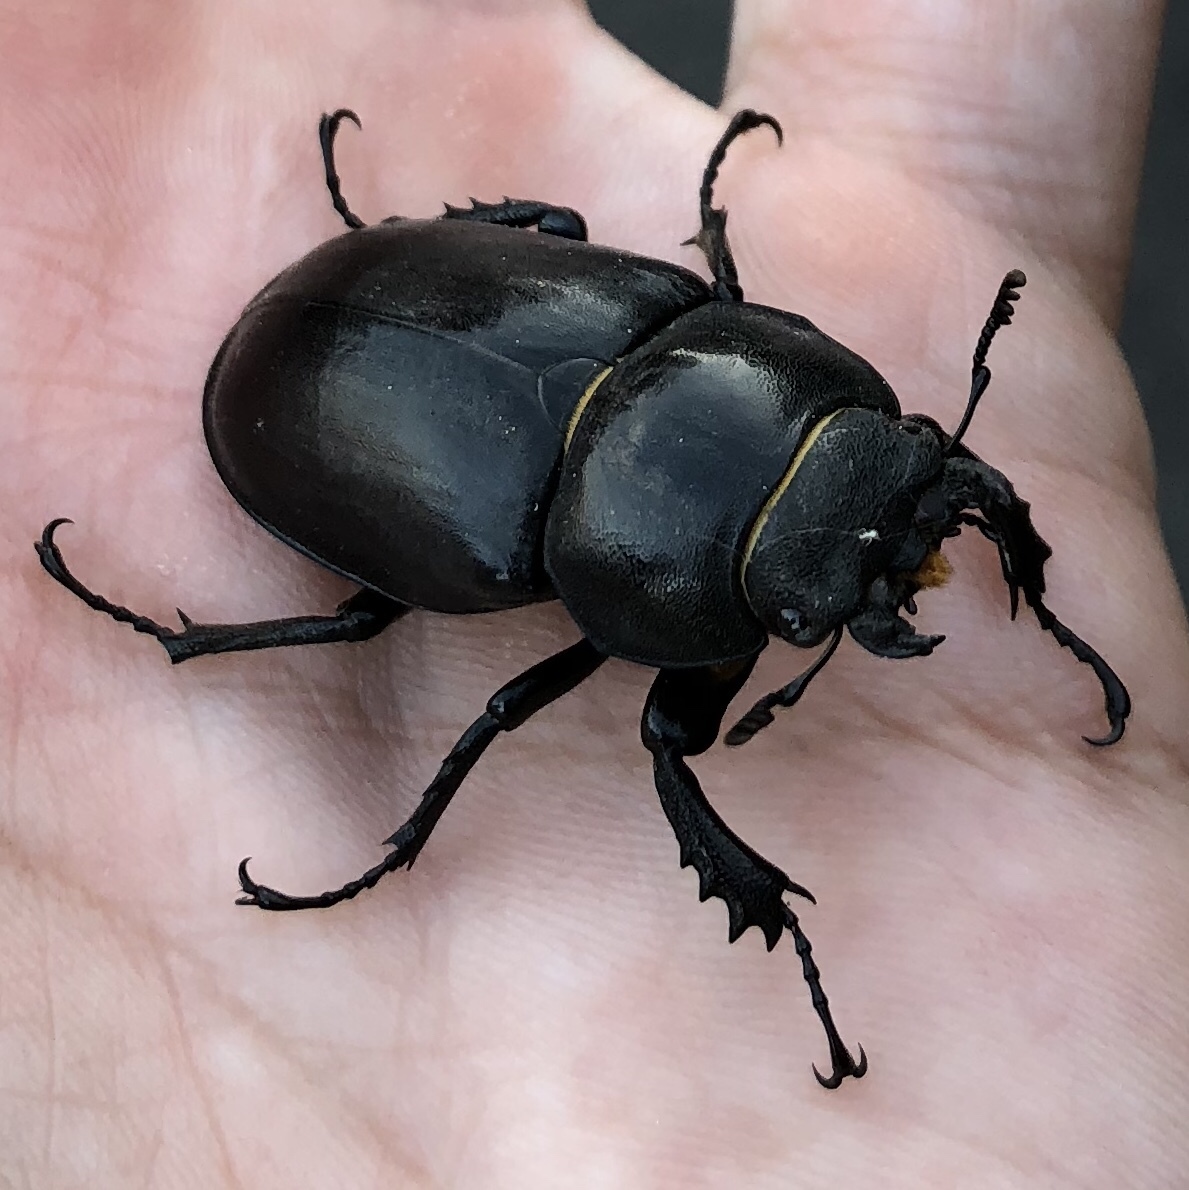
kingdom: Animalia
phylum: Arthropoda
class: Insecta
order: Coleoptera
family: Lucanidae
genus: Lucanus
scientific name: Lucanus cervus
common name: Stag beetle
